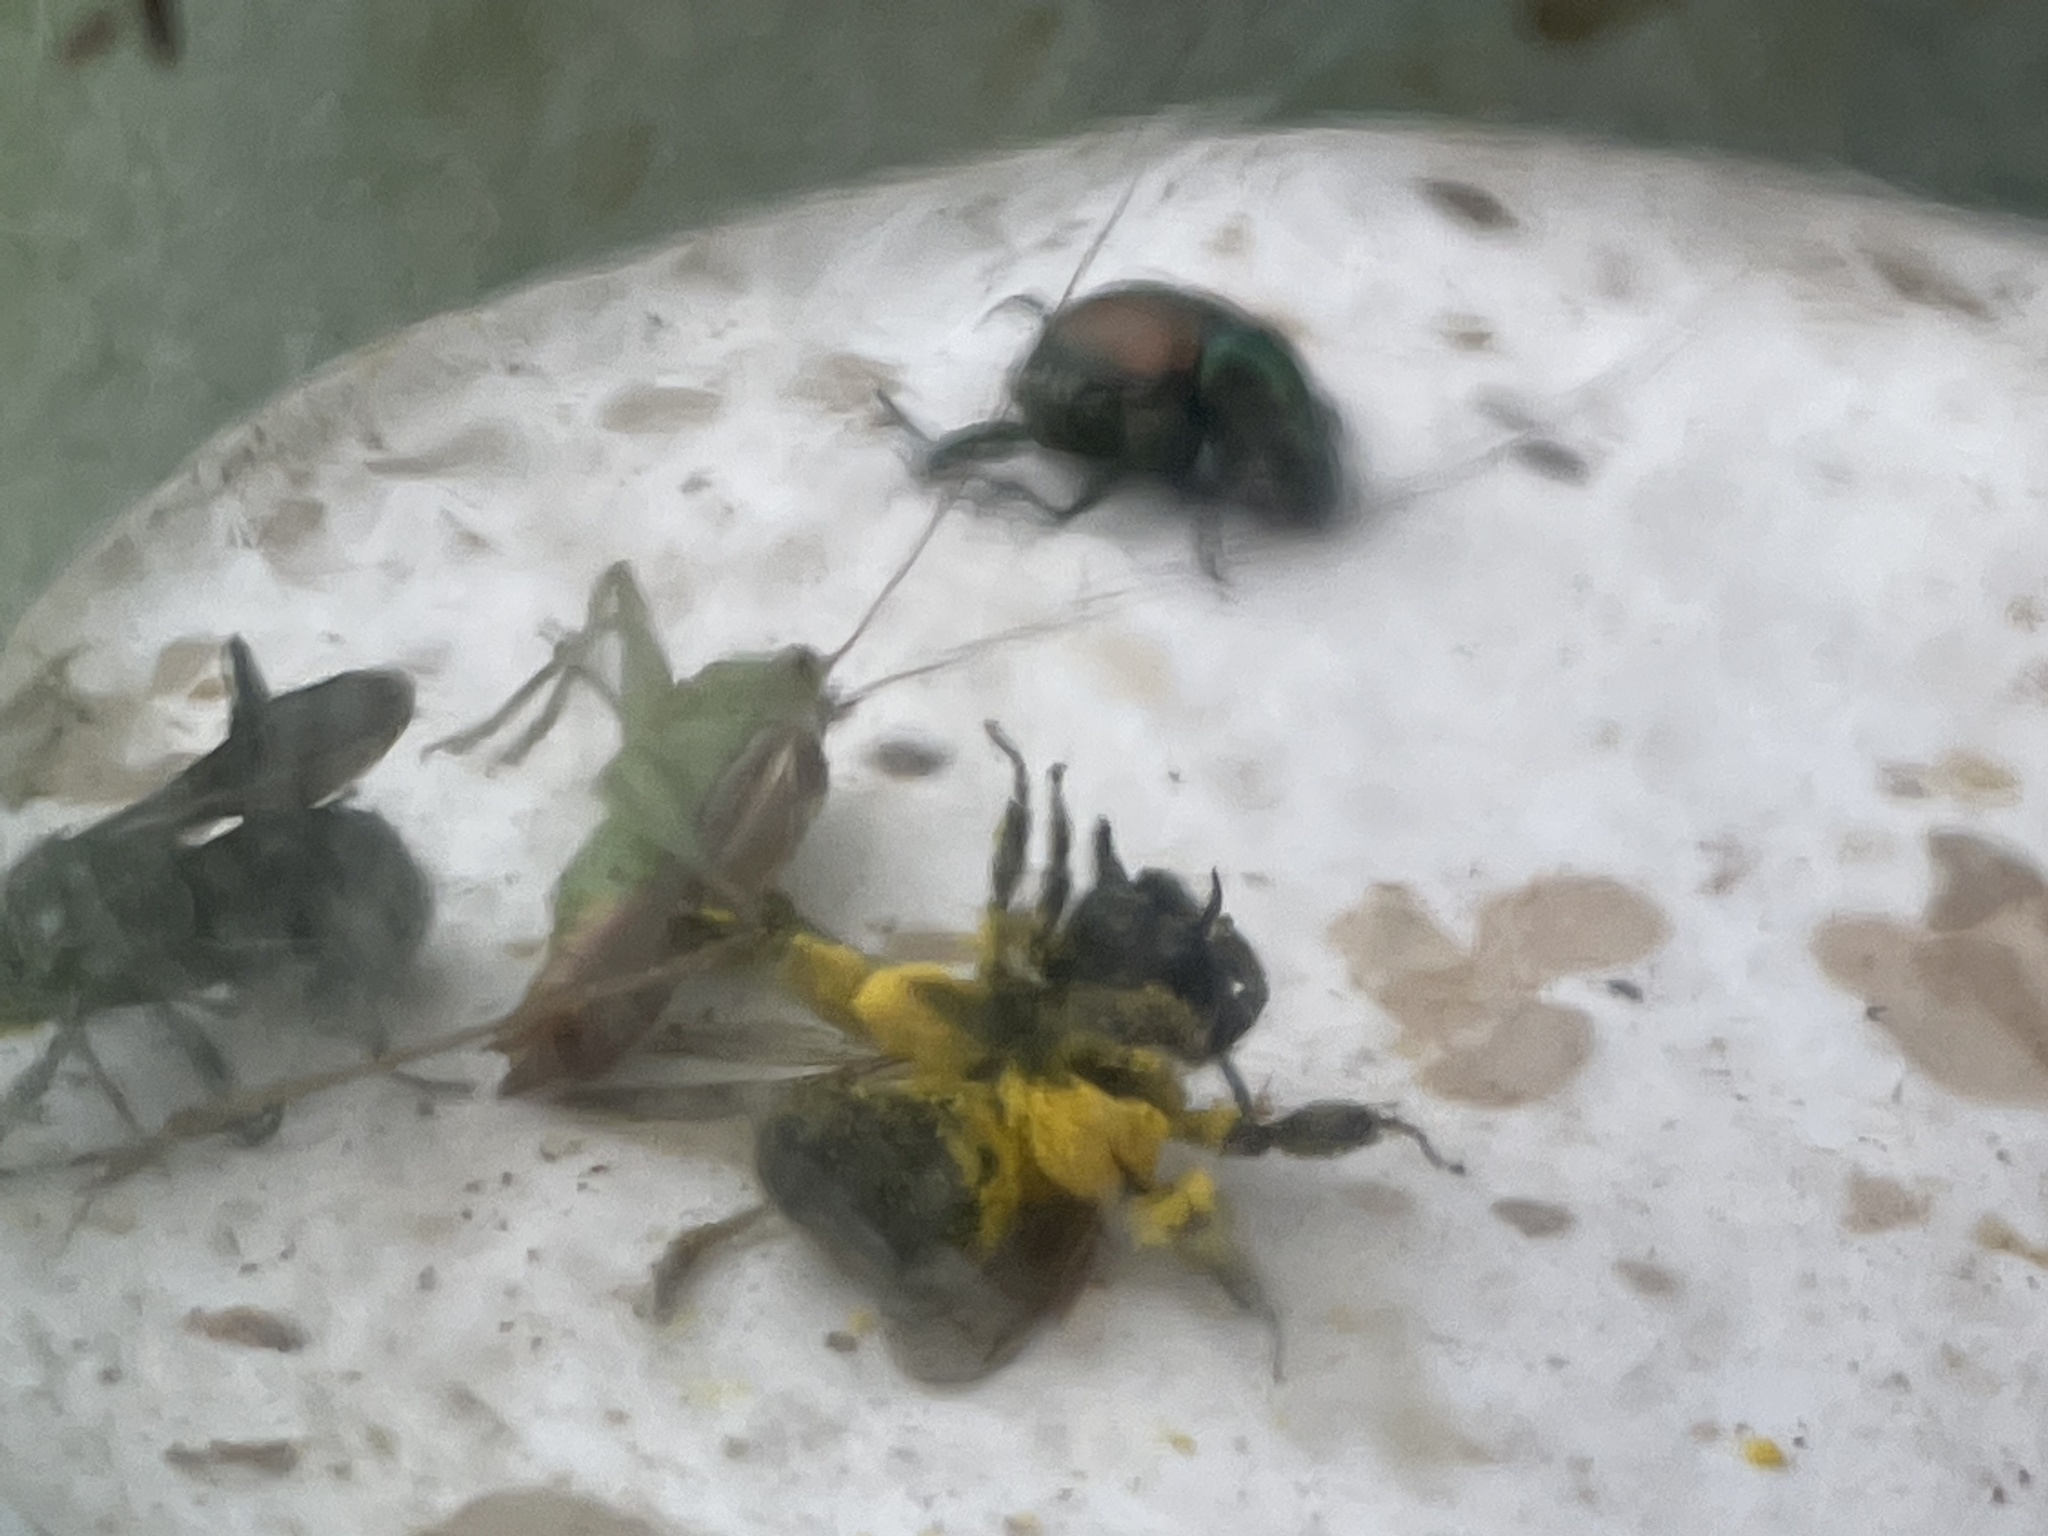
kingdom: Animalia
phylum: Arthropoda
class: Insecta
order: Hymenoptera
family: Andrenidae
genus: Andrena
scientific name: Andrena hirticincta
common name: Hairy-banded mining bee
